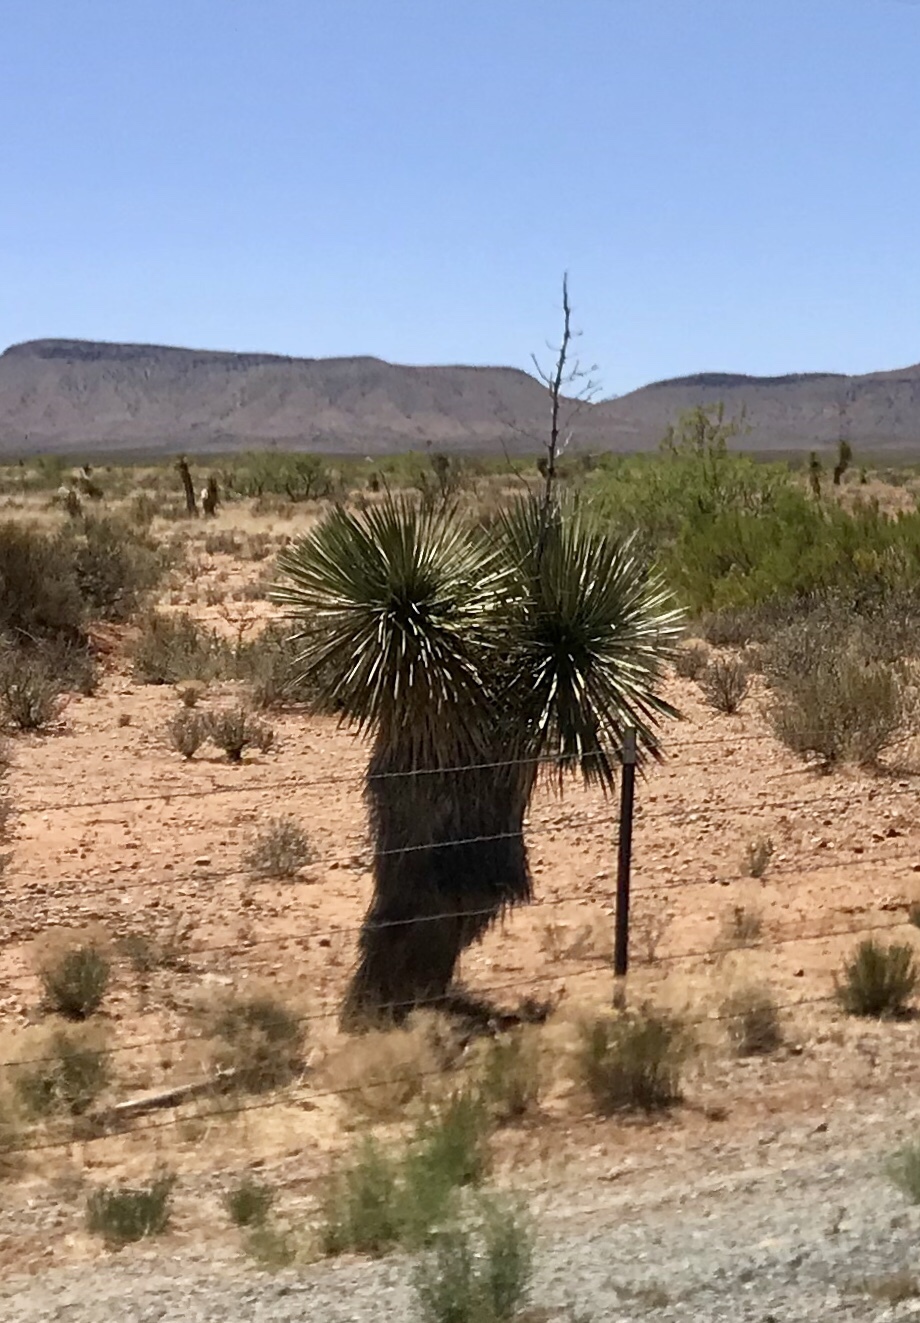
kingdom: Plantae
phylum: Tracheophyta
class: Liliopsida
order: Asparagales
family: Asparagaceae
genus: Yucca
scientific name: Yucca elata
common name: Palmella
